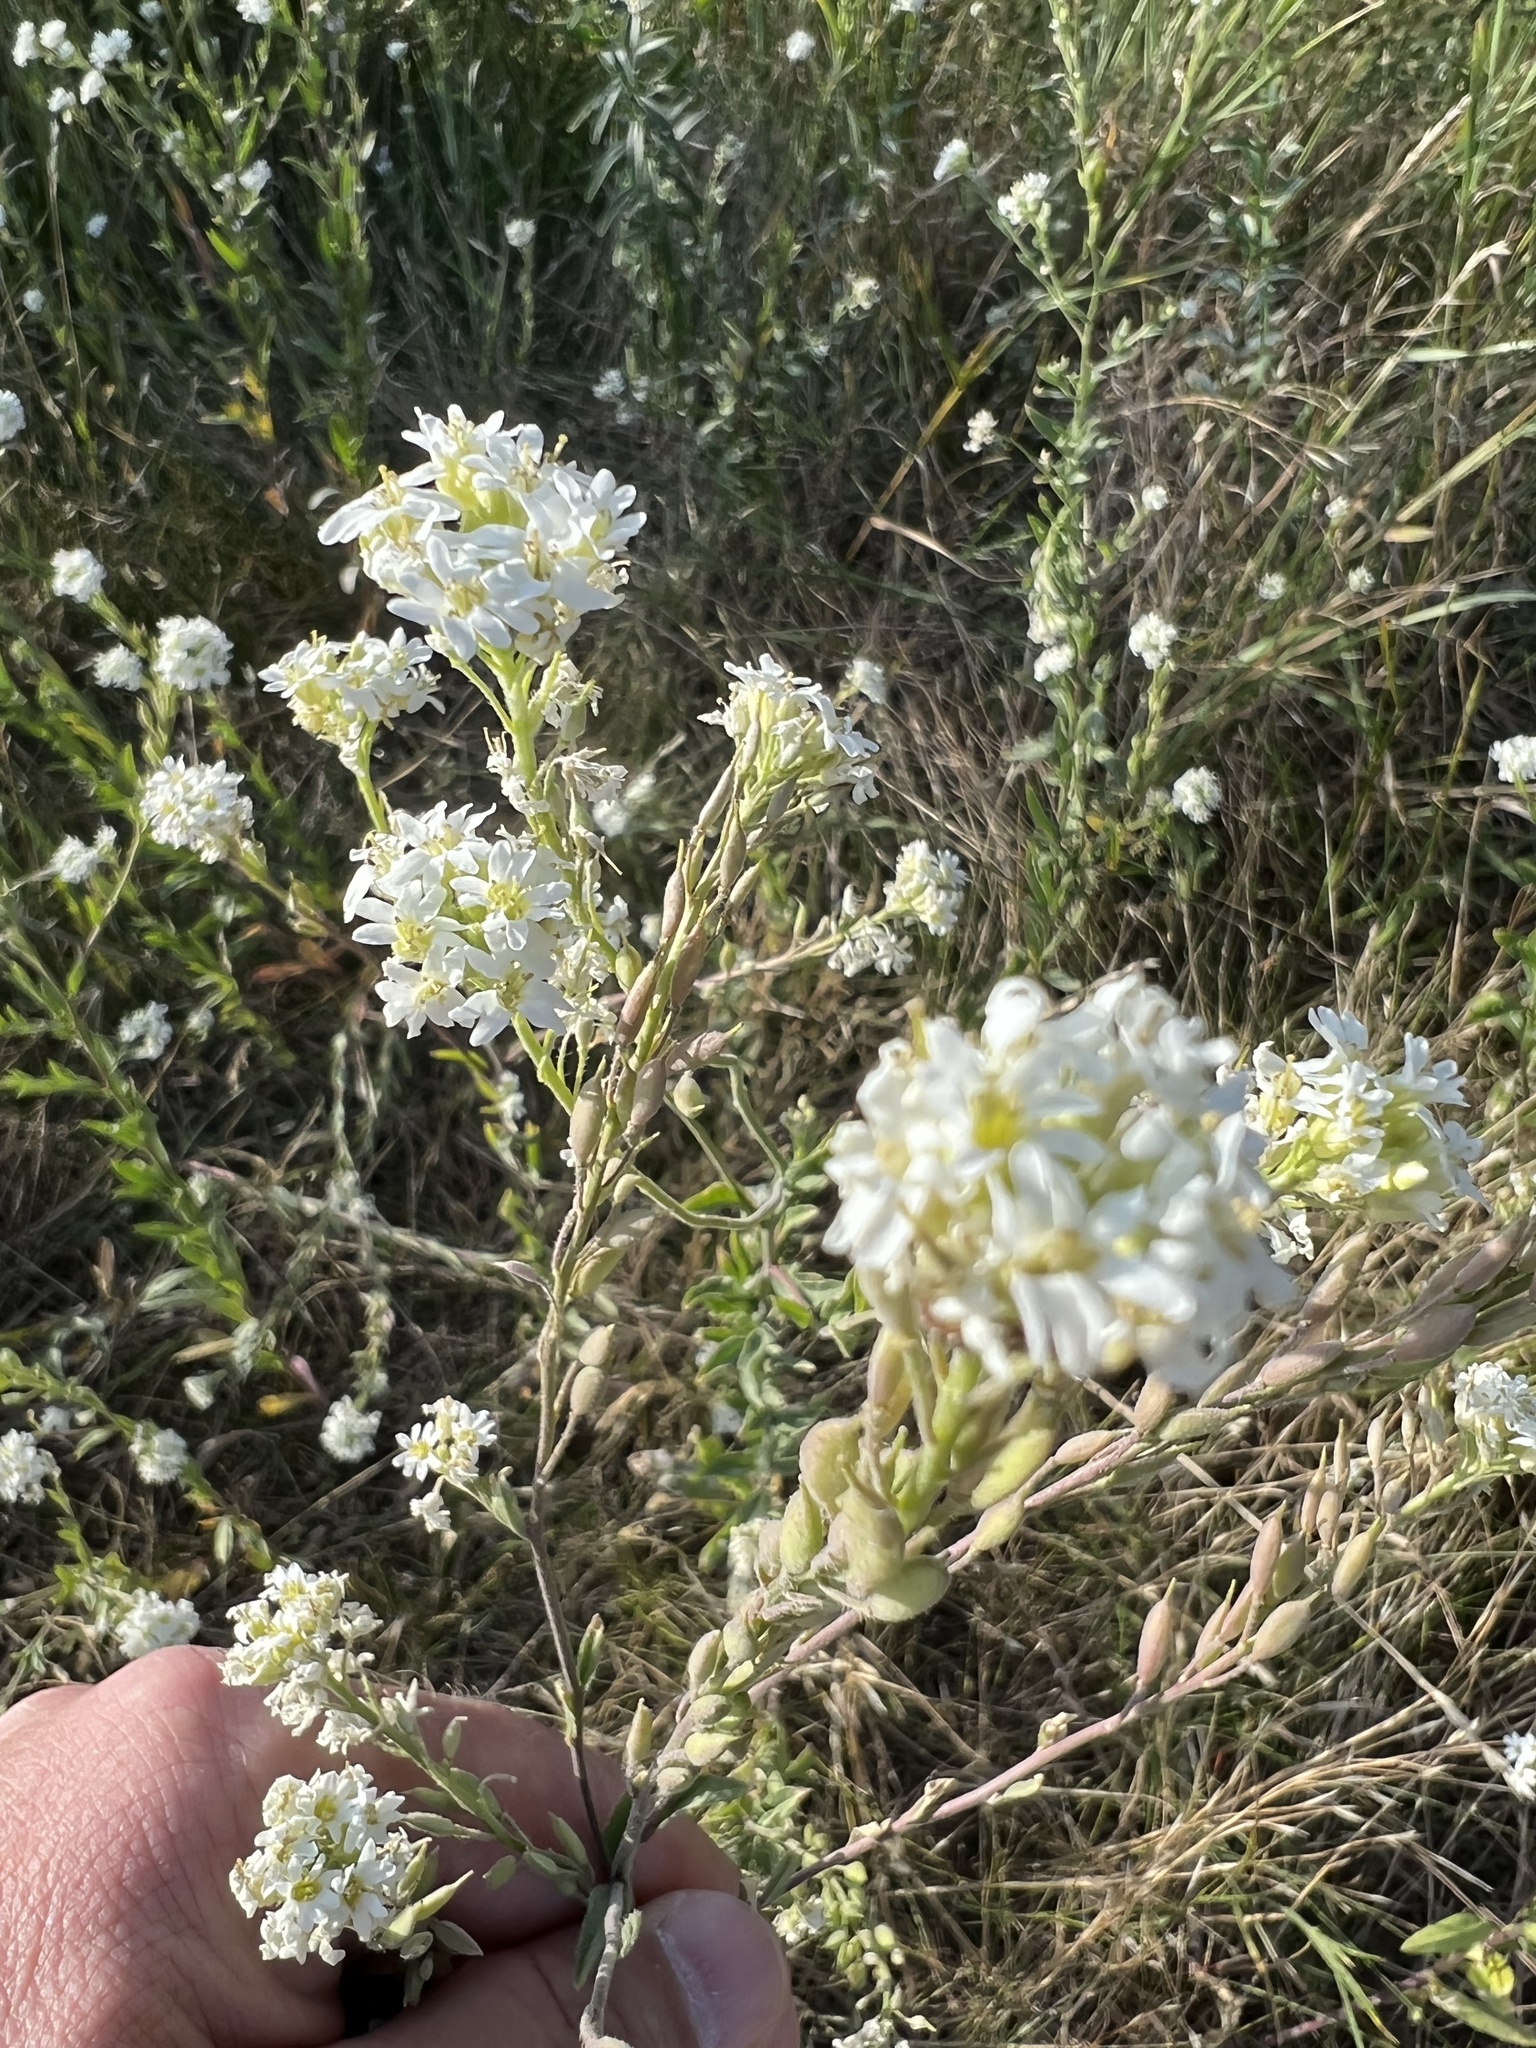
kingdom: Plantae
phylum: Tracheophyta
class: Magnoliopsida
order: Brassicales
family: Brassicaceae
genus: Berteroa
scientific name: Berteroa incana
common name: Hoary alison
